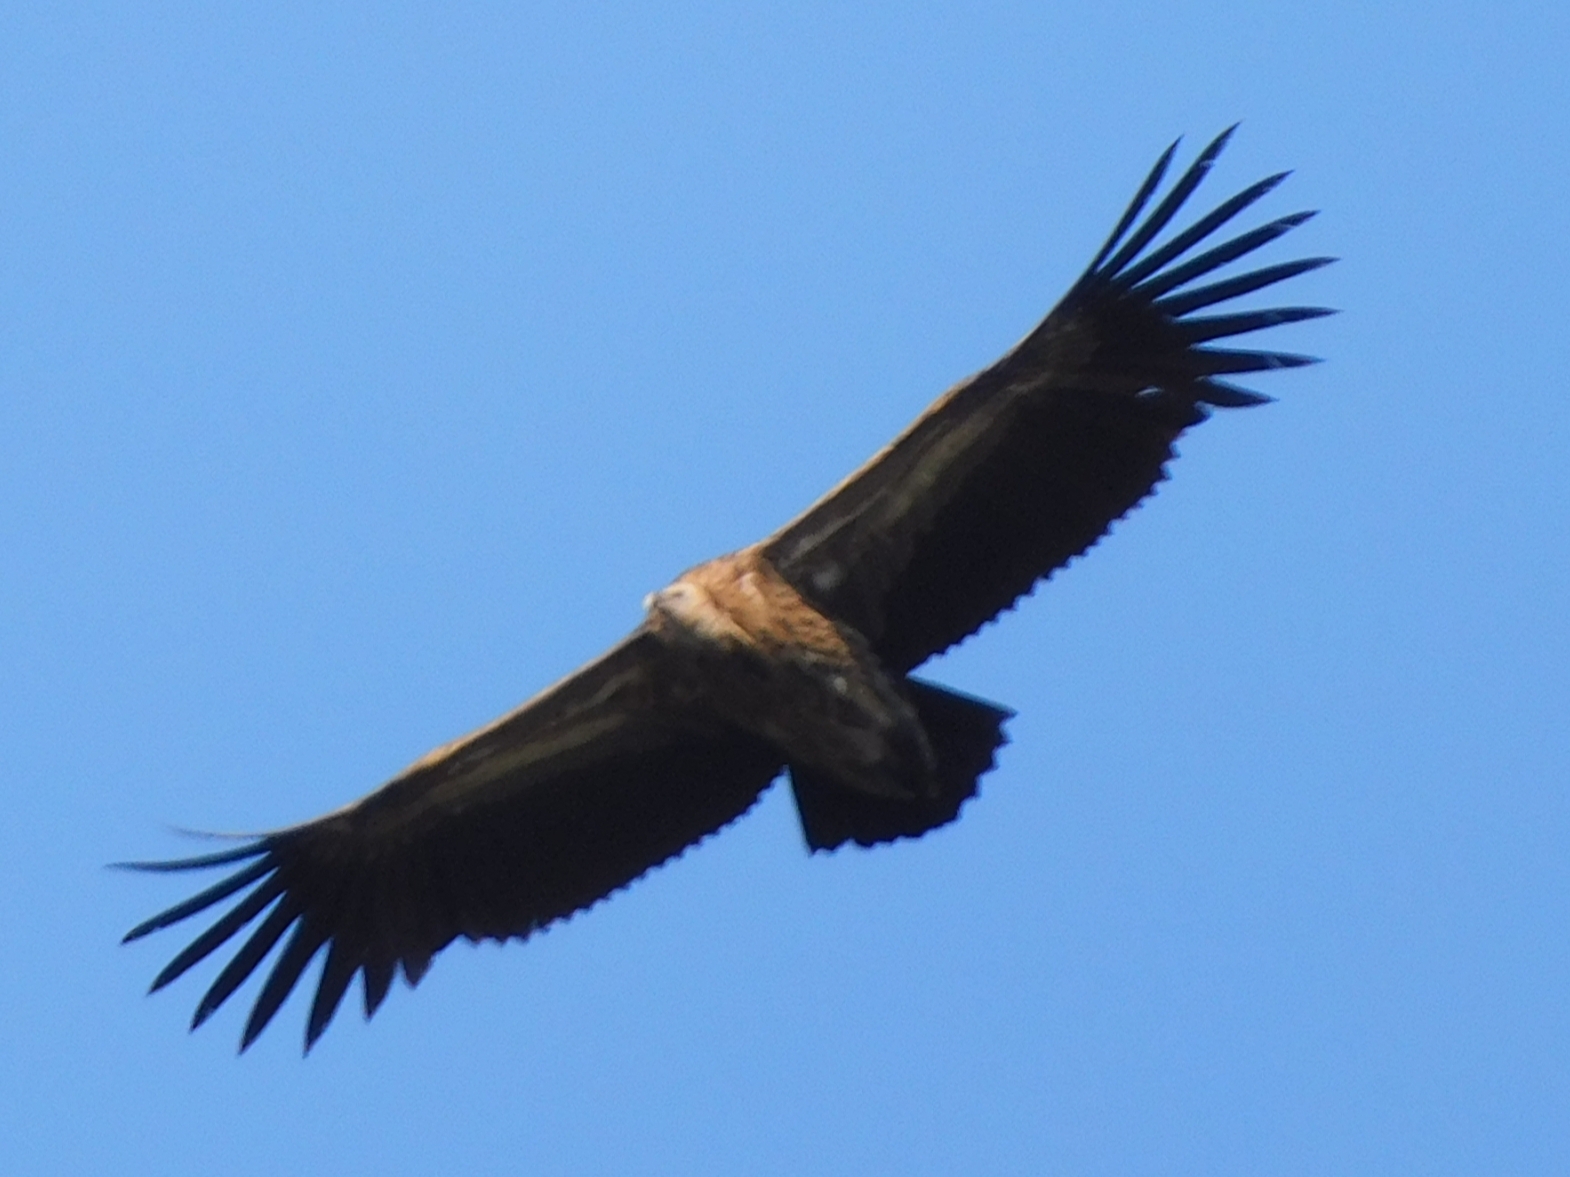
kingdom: Animalia
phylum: Chordata
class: Aves
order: Accipitriformes
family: Accipitridae
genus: Gyps
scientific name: Gyps himalayensis
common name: Himalayan griffon
